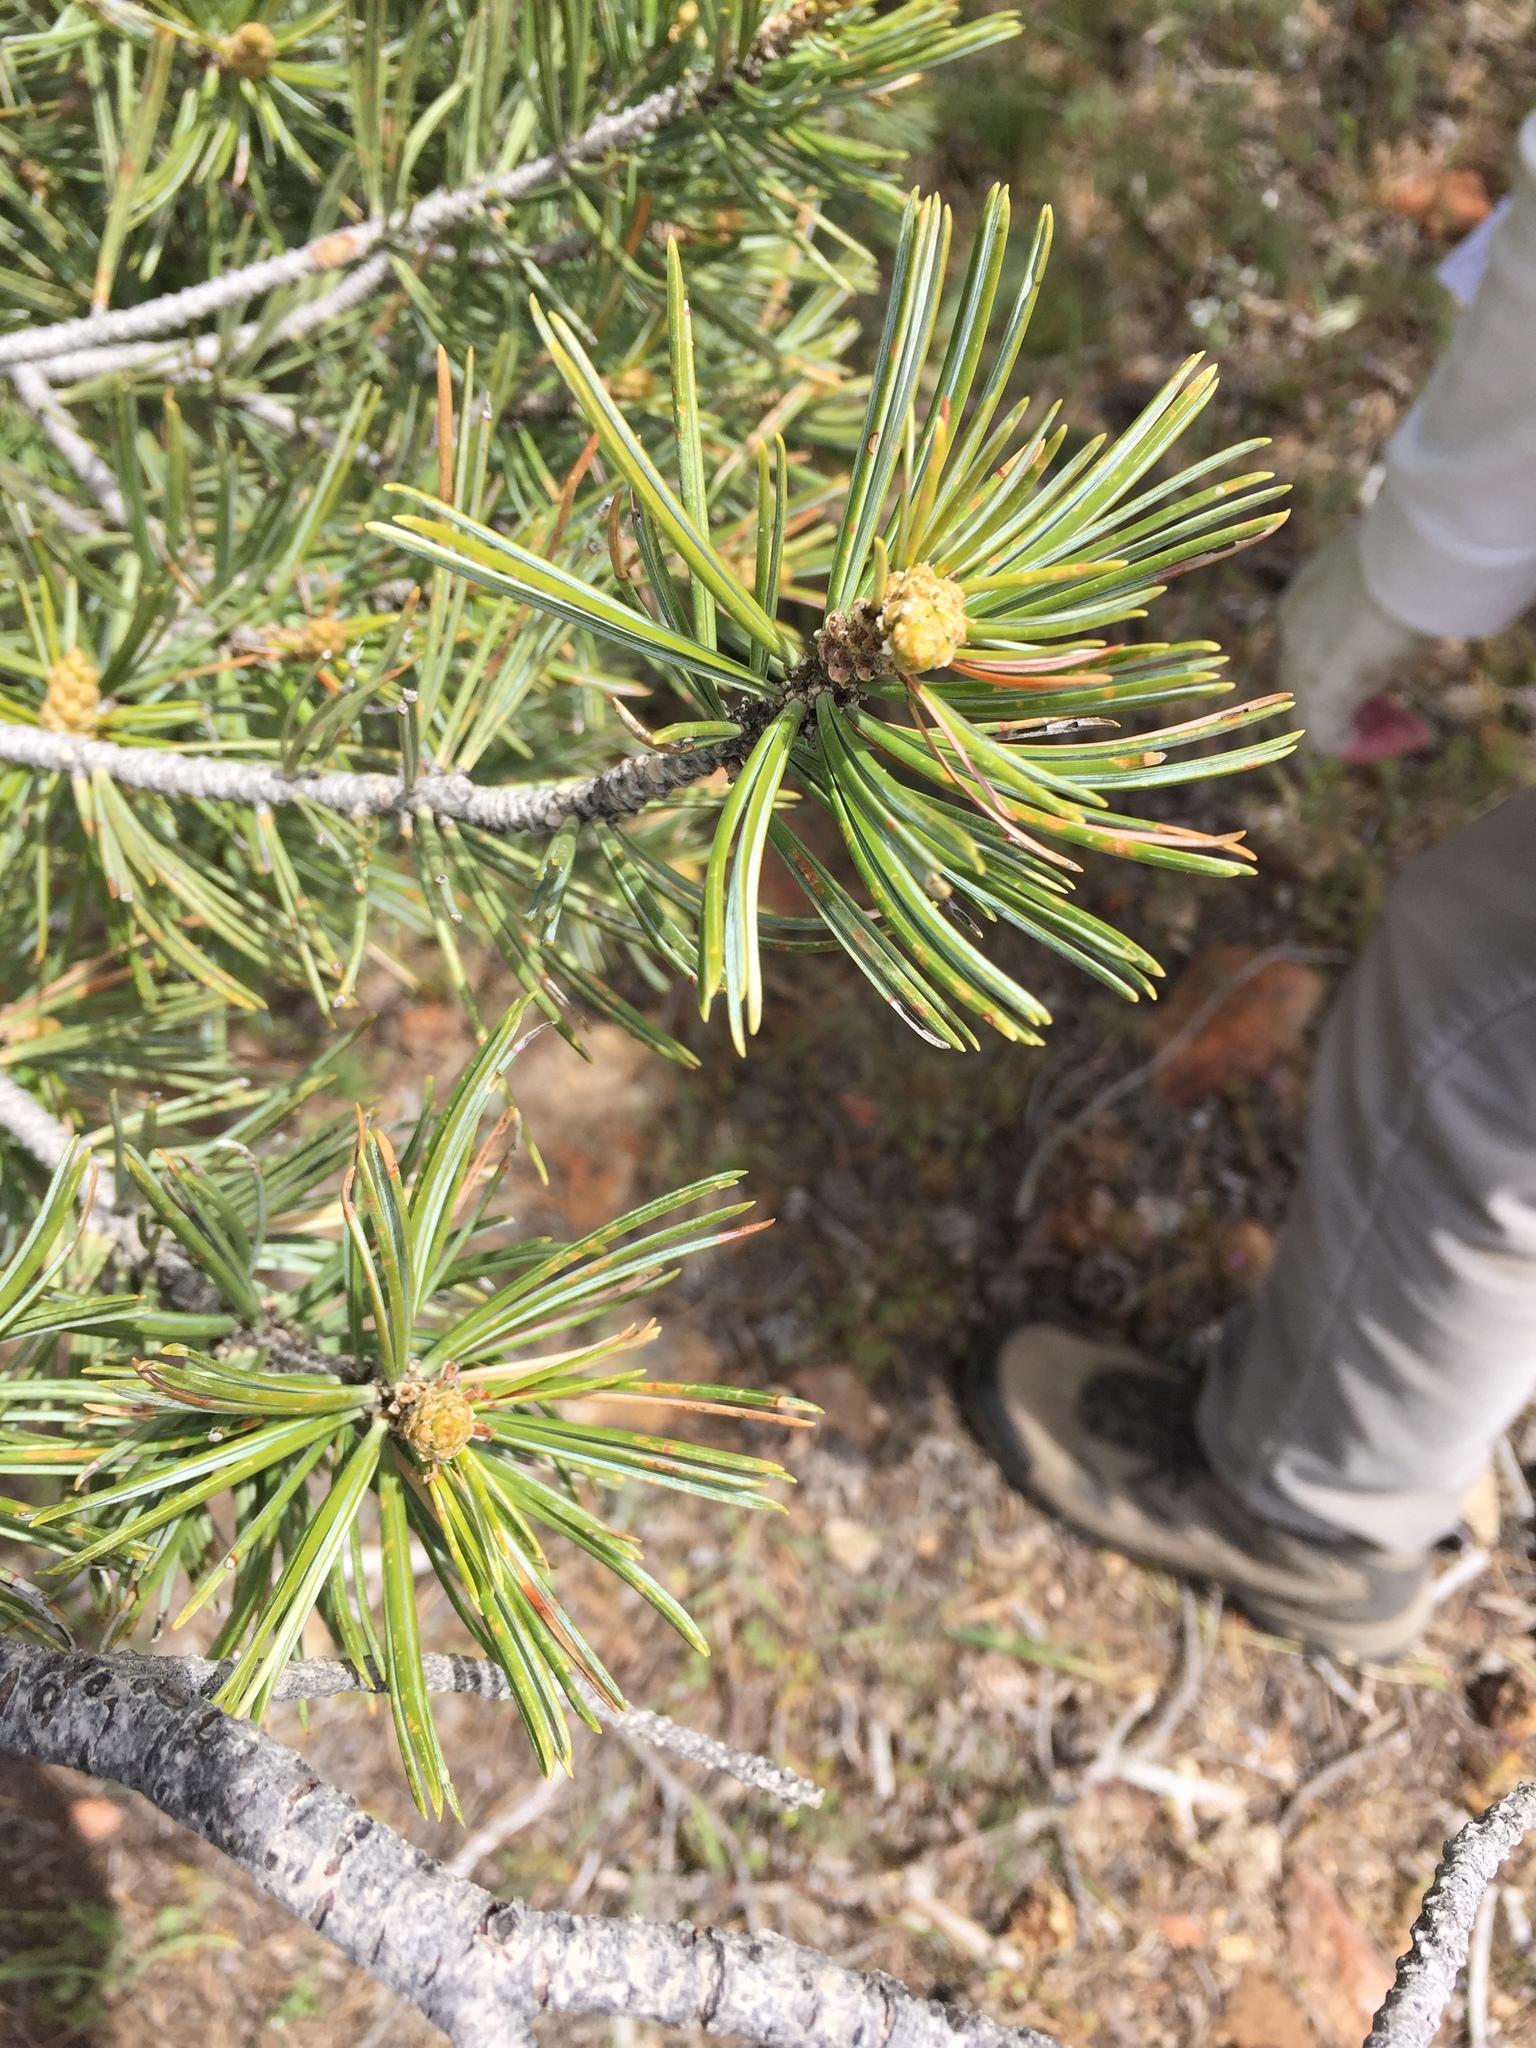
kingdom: Plantae
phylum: Tracheophyta
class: Pinopsida
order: Pinales
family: Pinaceae
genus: Pinus
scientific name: Pinus quadrifolia
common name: Parry pinyon
